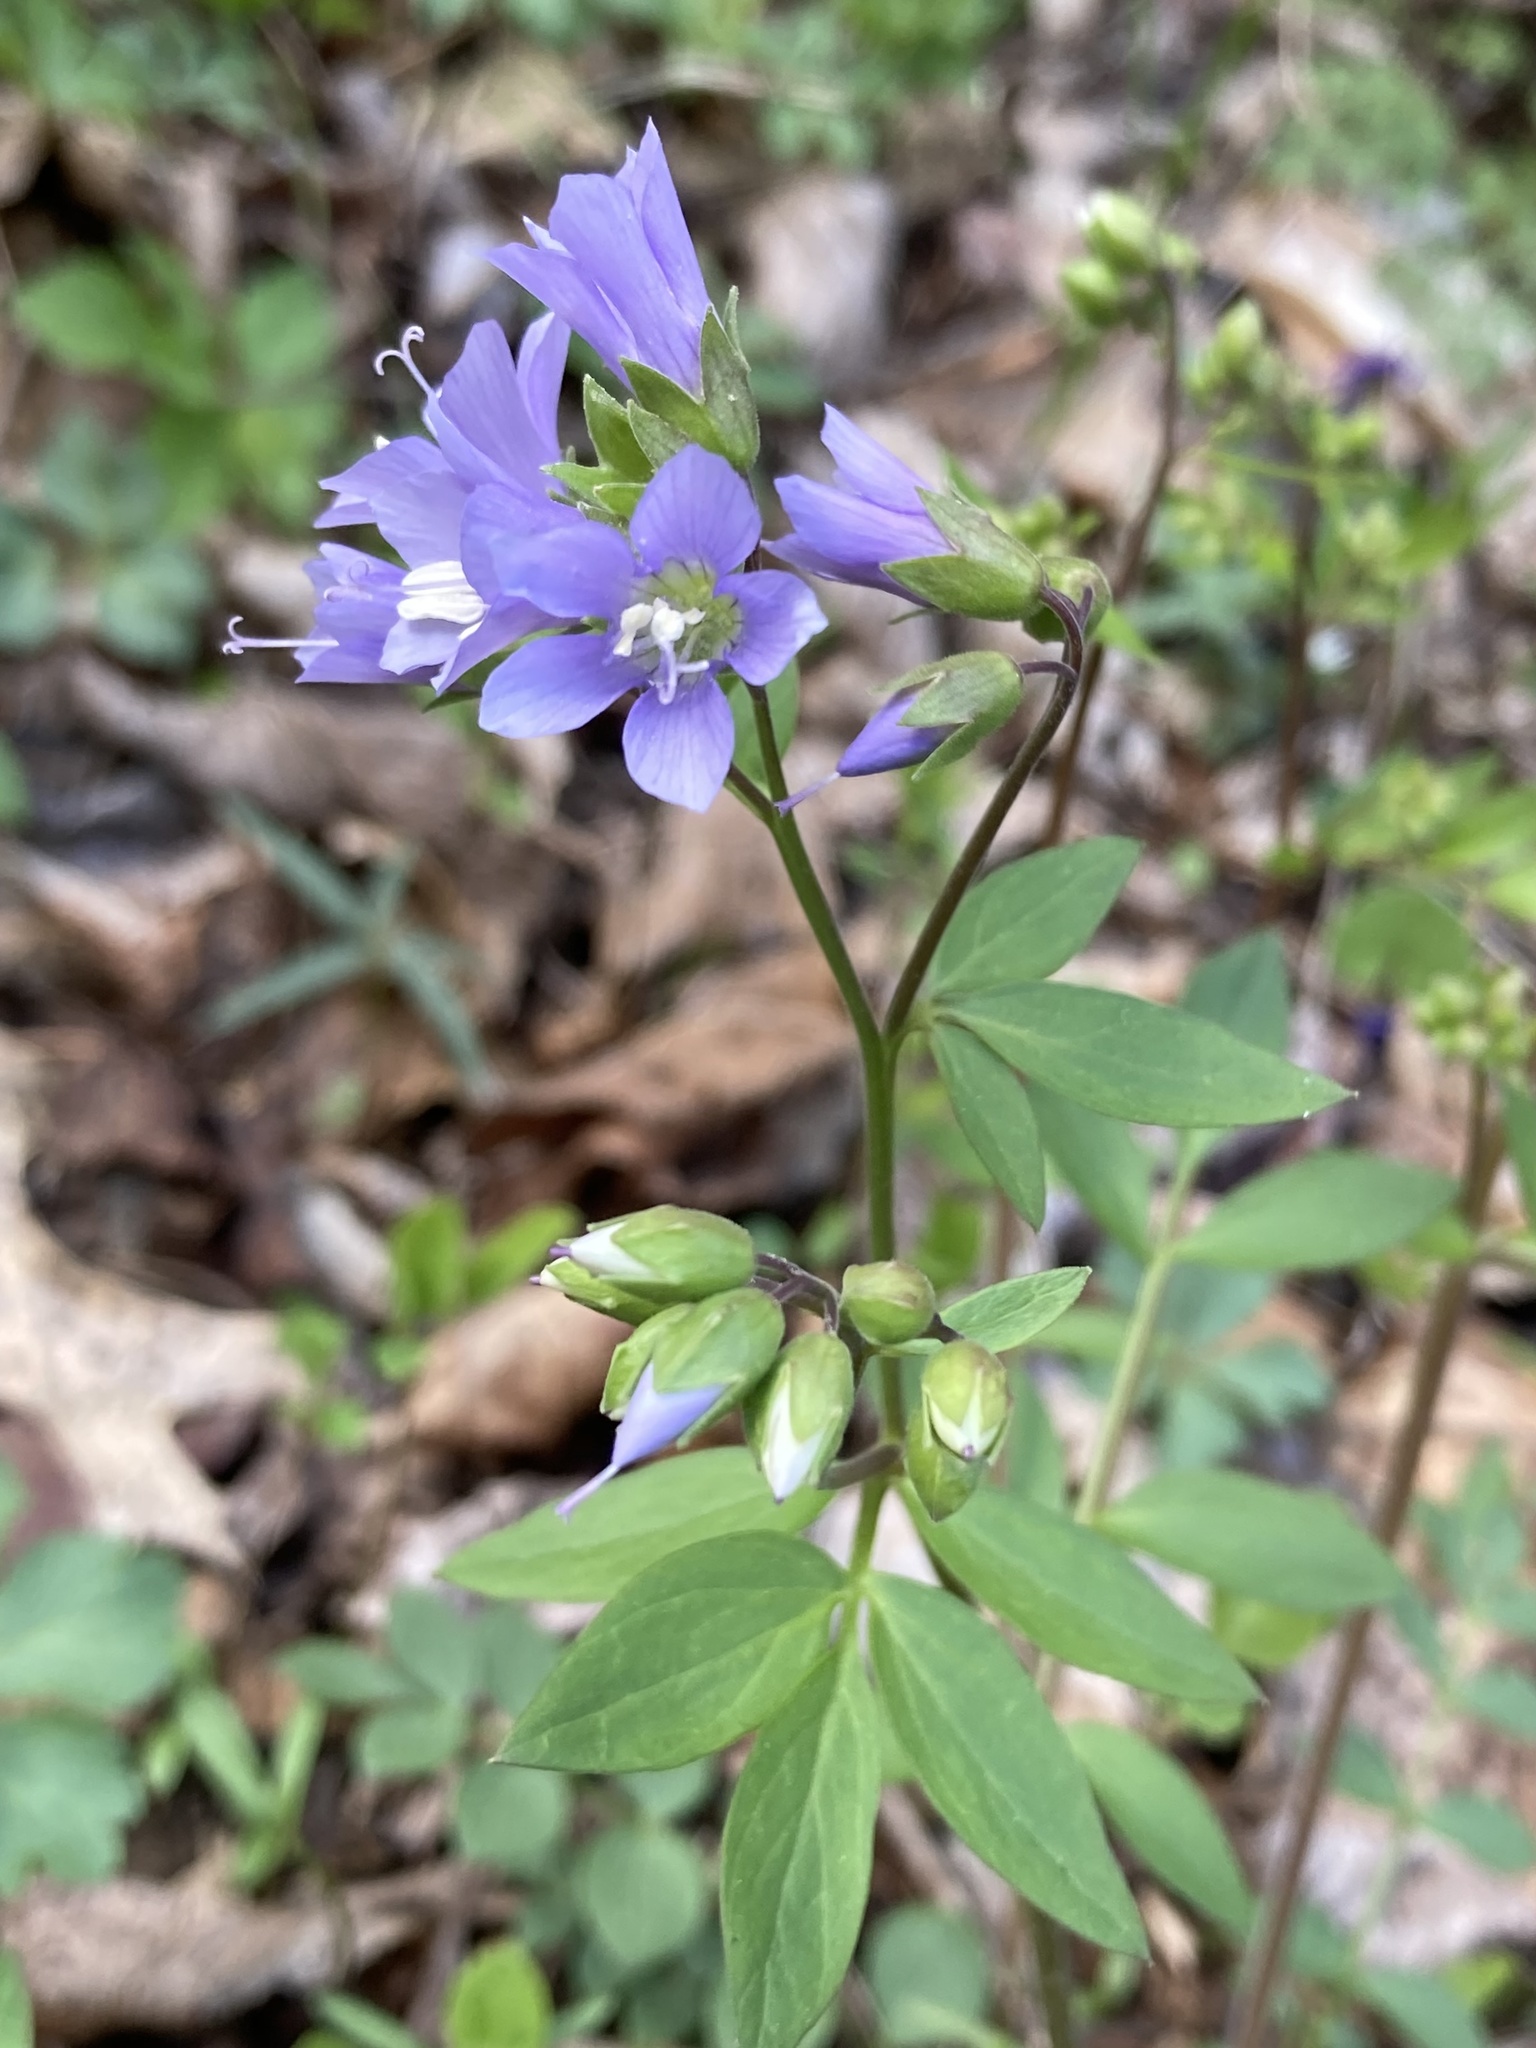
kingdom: Plantae
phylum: Tracheophyta
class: Magnoliopsida
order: Ericales
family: Polemoniaceae
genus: Polemonium
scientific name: Polemonium reptans
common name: Creeping jacob's-ladder
